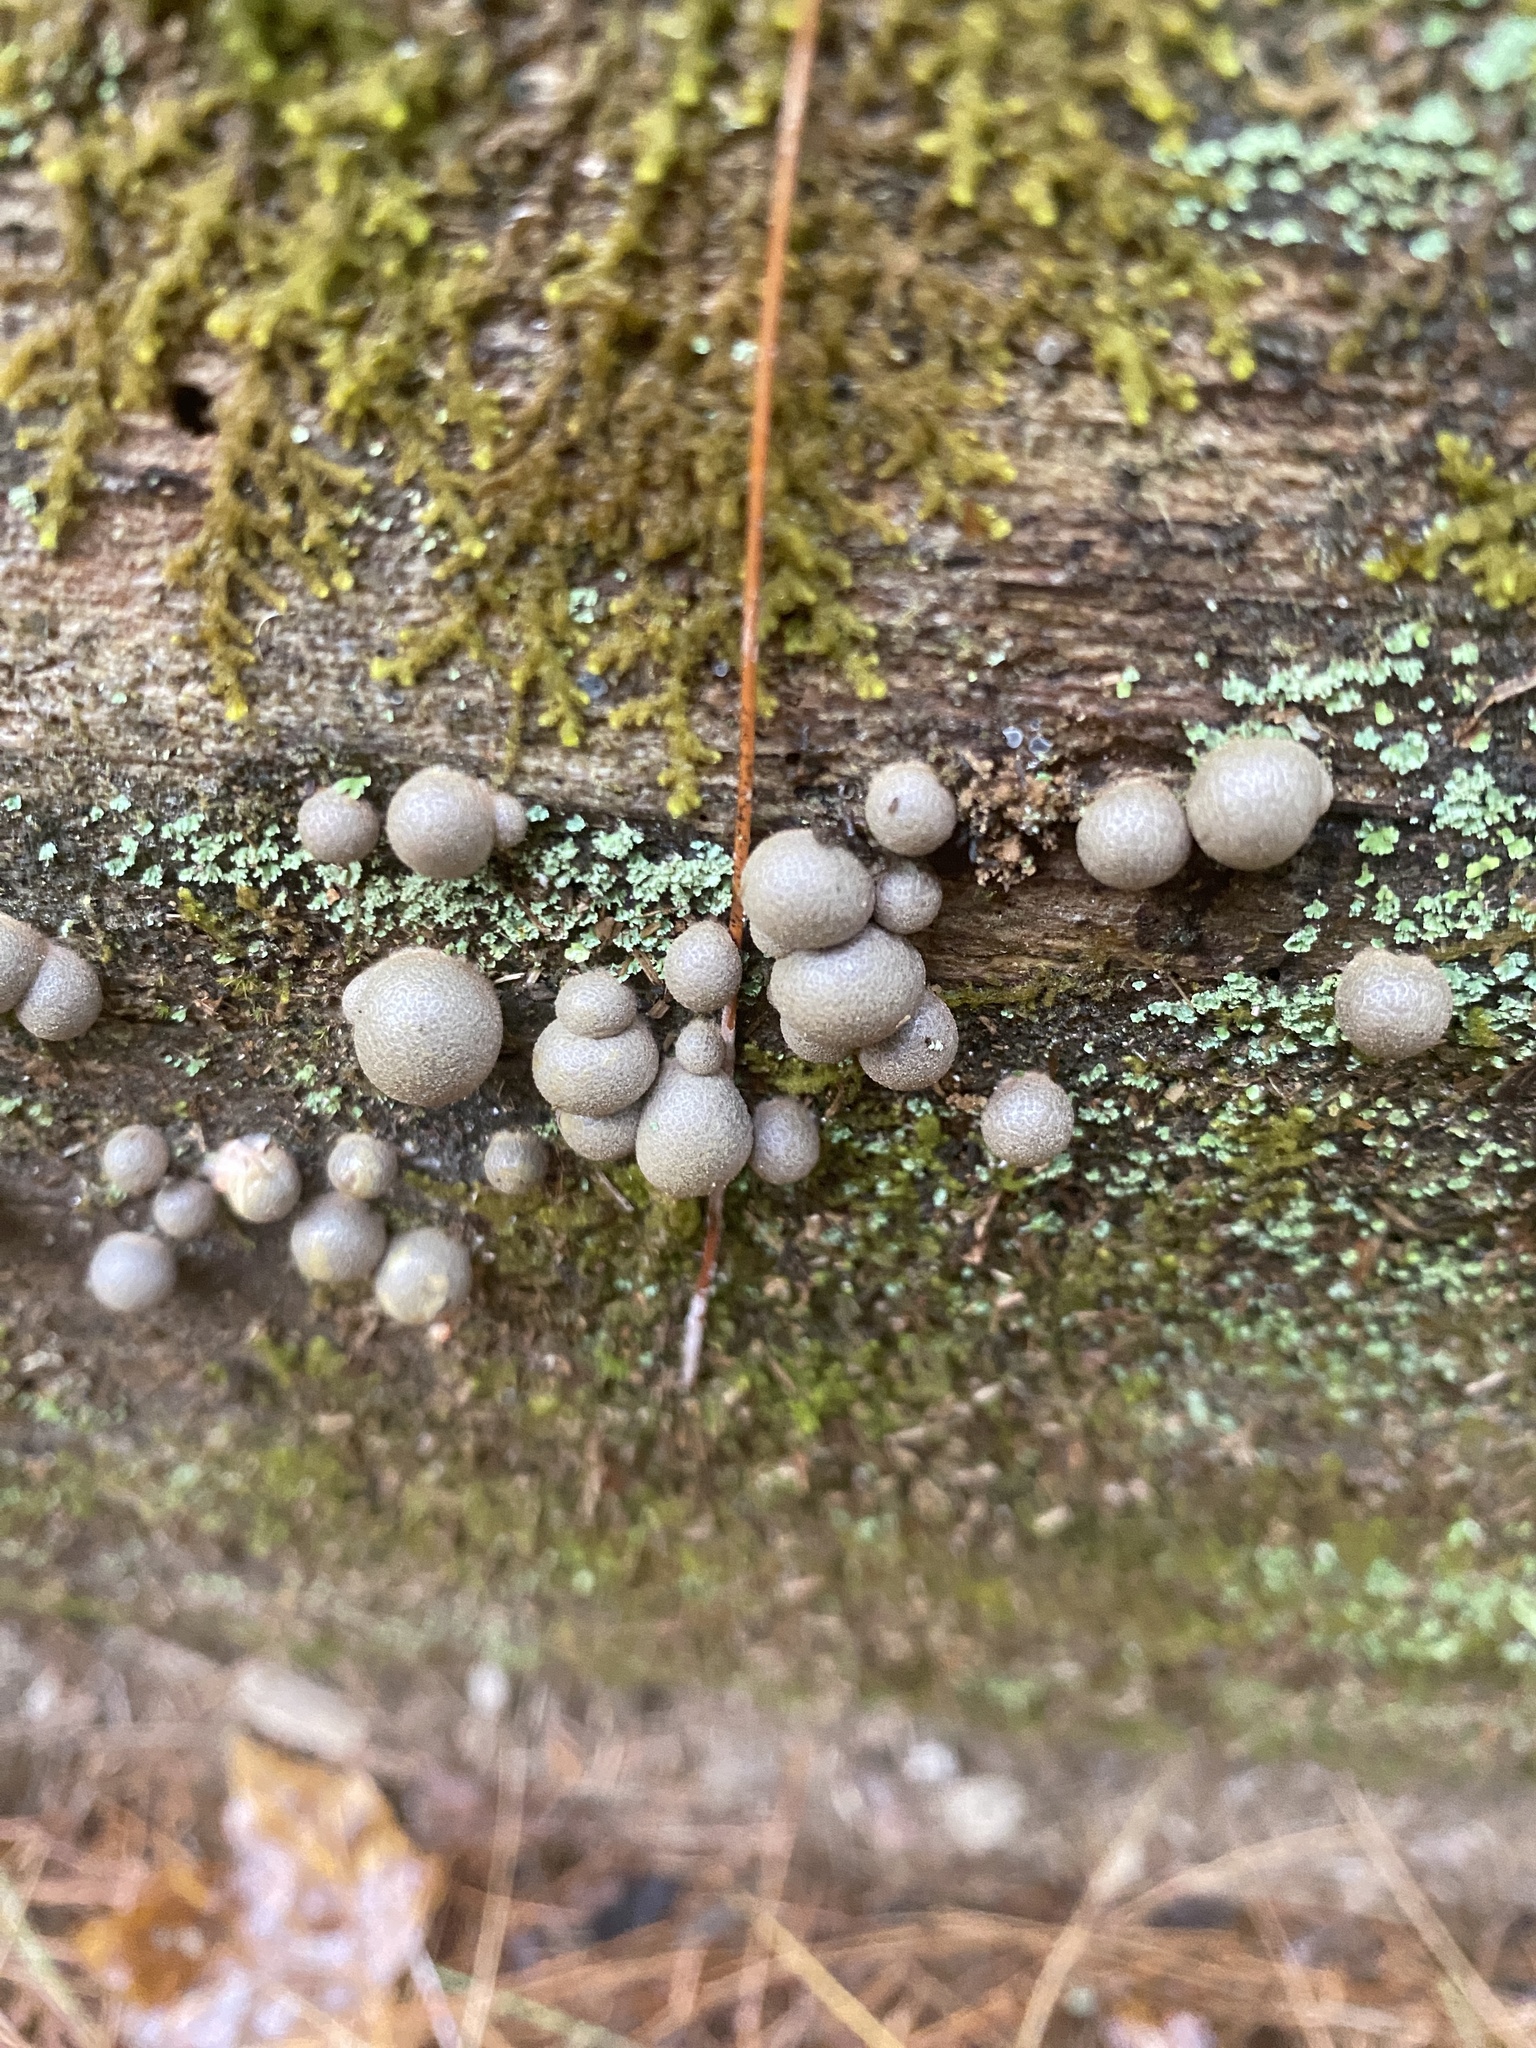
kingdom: Protozoa
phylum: Mycetozoa
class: Myxomycetes
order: Cribrariales
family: Tubiferaceae
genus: Lycogala
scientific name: Lycogala epidendrum
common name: Wolf's milk
